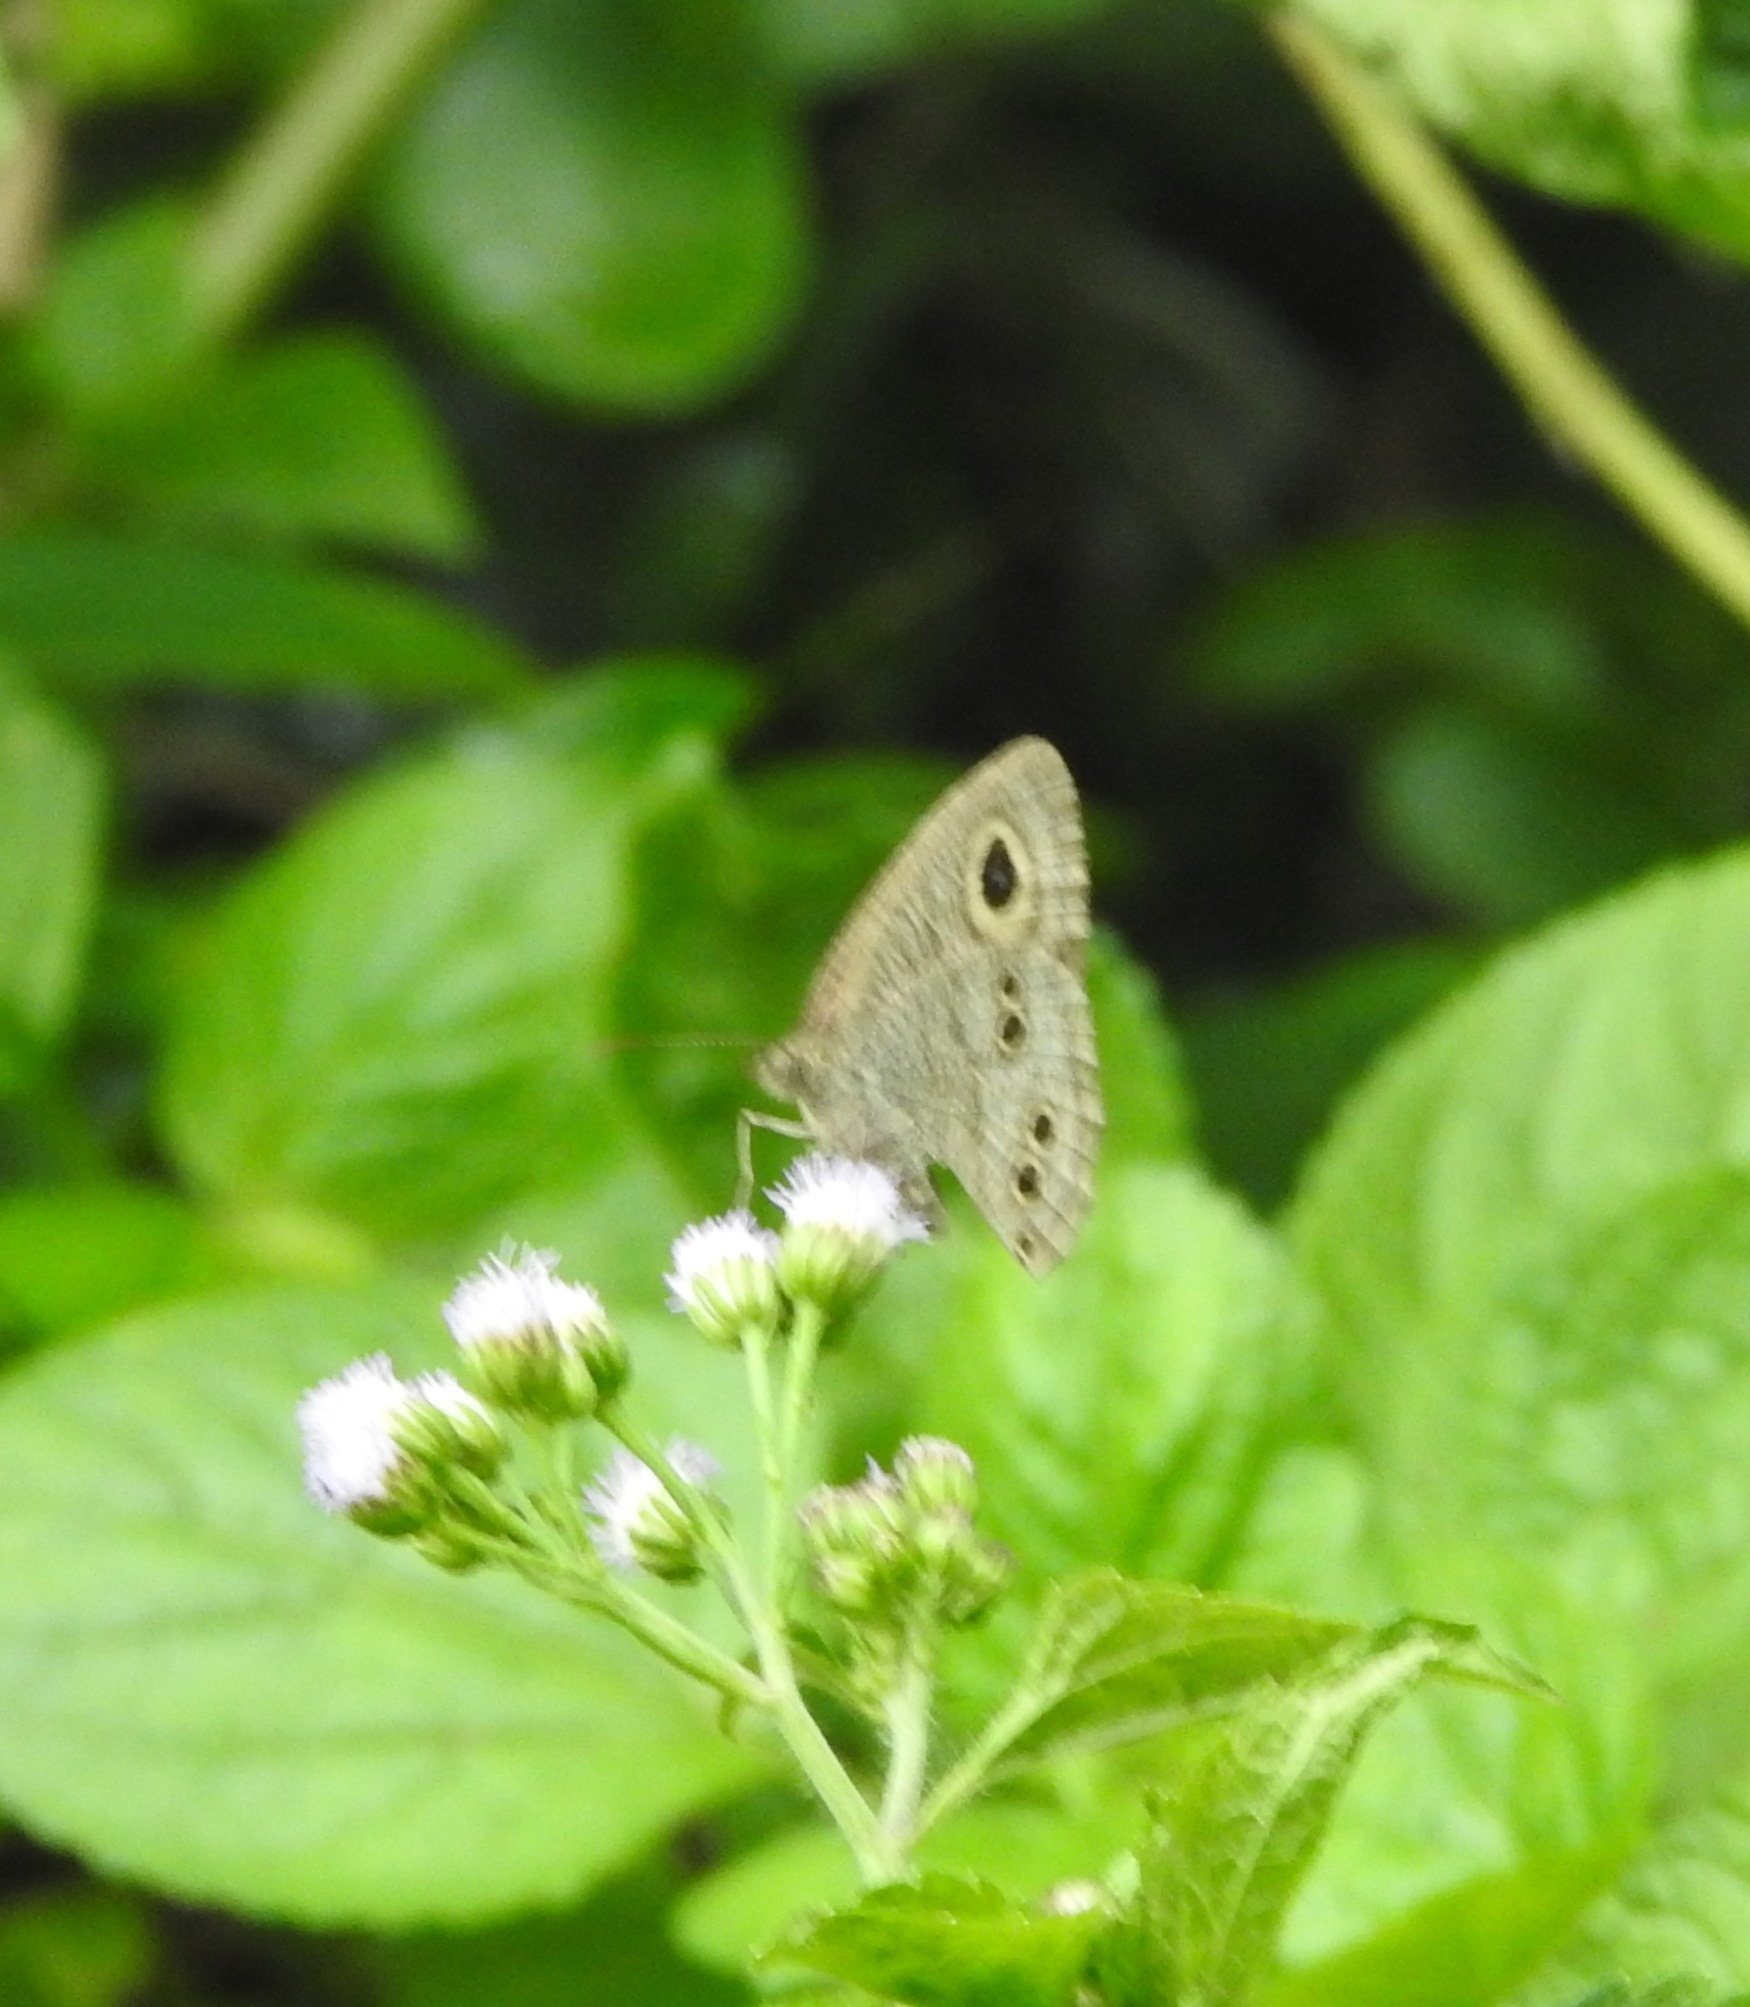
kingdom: Animalia
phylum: Arthropoda
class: Insecta
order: Lepidoptera
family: Nymphalidae
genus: Ypthima
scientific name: Ypthima baldus
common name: Common five-ring
